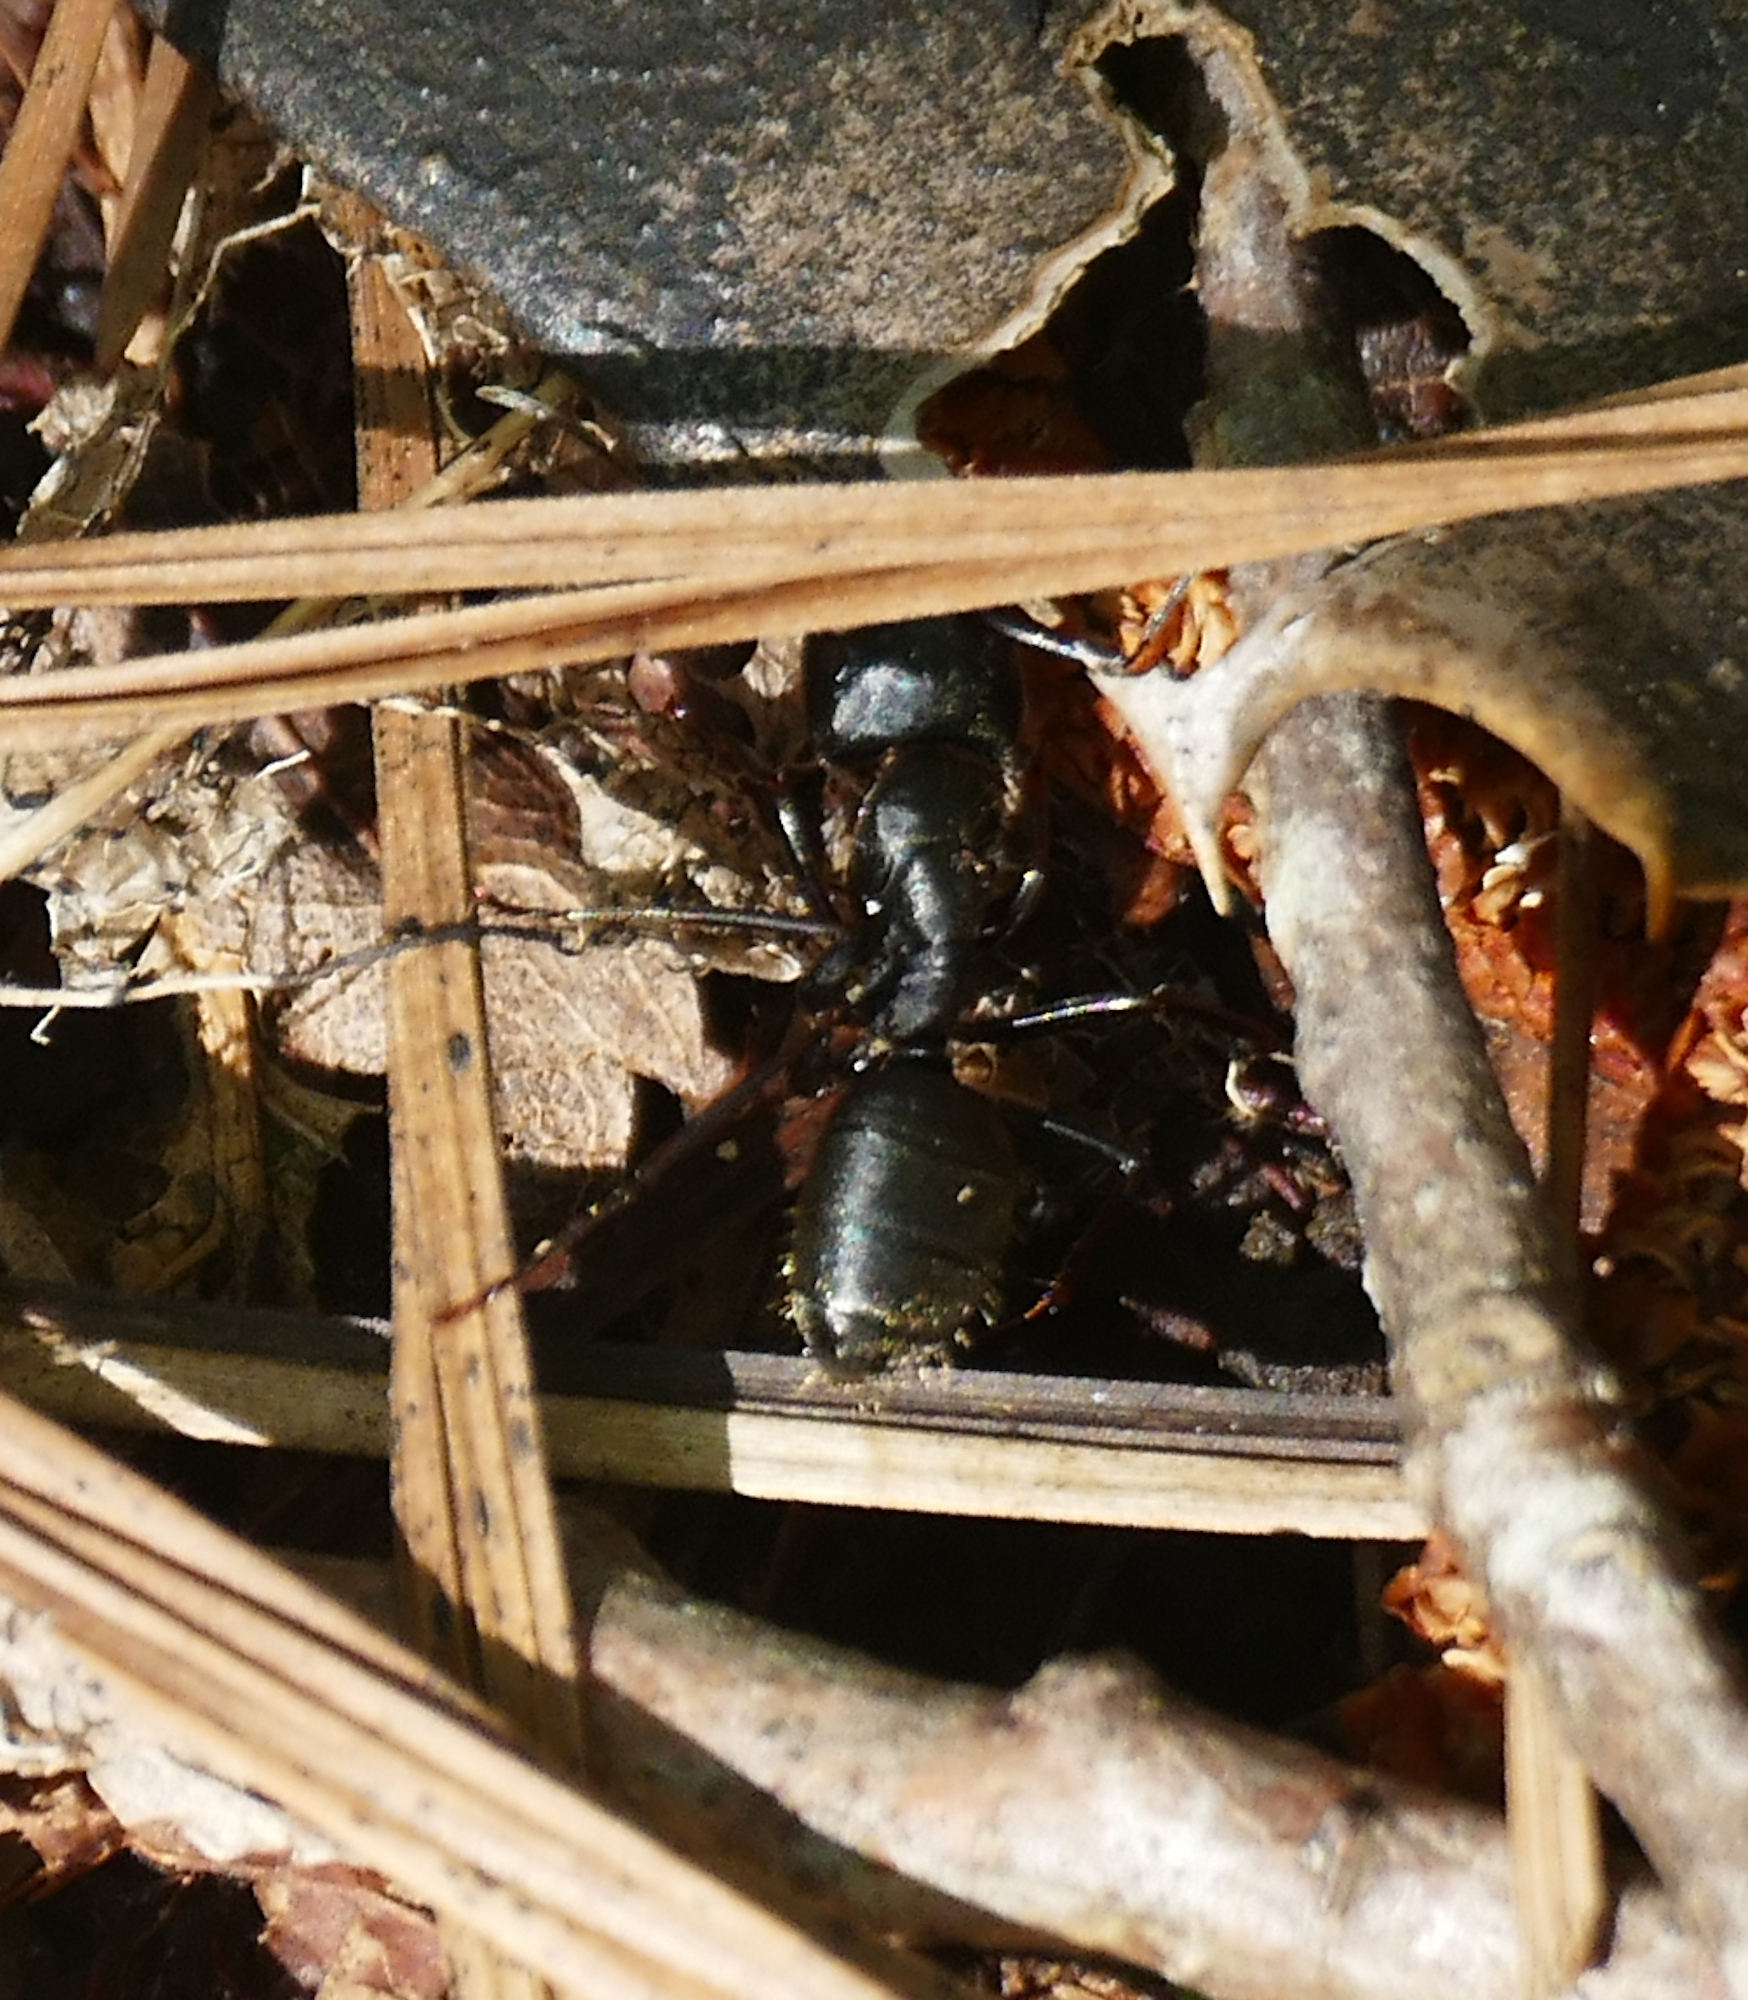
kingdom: Animalia
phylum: Arthropoda
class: Insecta
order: Hymenoptera
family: Formicidae
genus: Camponotus
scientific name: Camponotus pennsylvanicus
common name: Black carpenter ant
